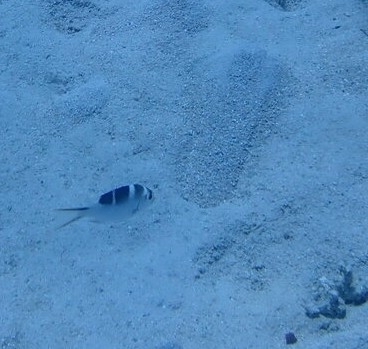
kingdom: Animalia
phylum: Chordata
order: Perciformes
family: Lethrinidae
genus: Monotaxis
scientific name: Monotaxis grandoculis
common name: Bigeye emperor
